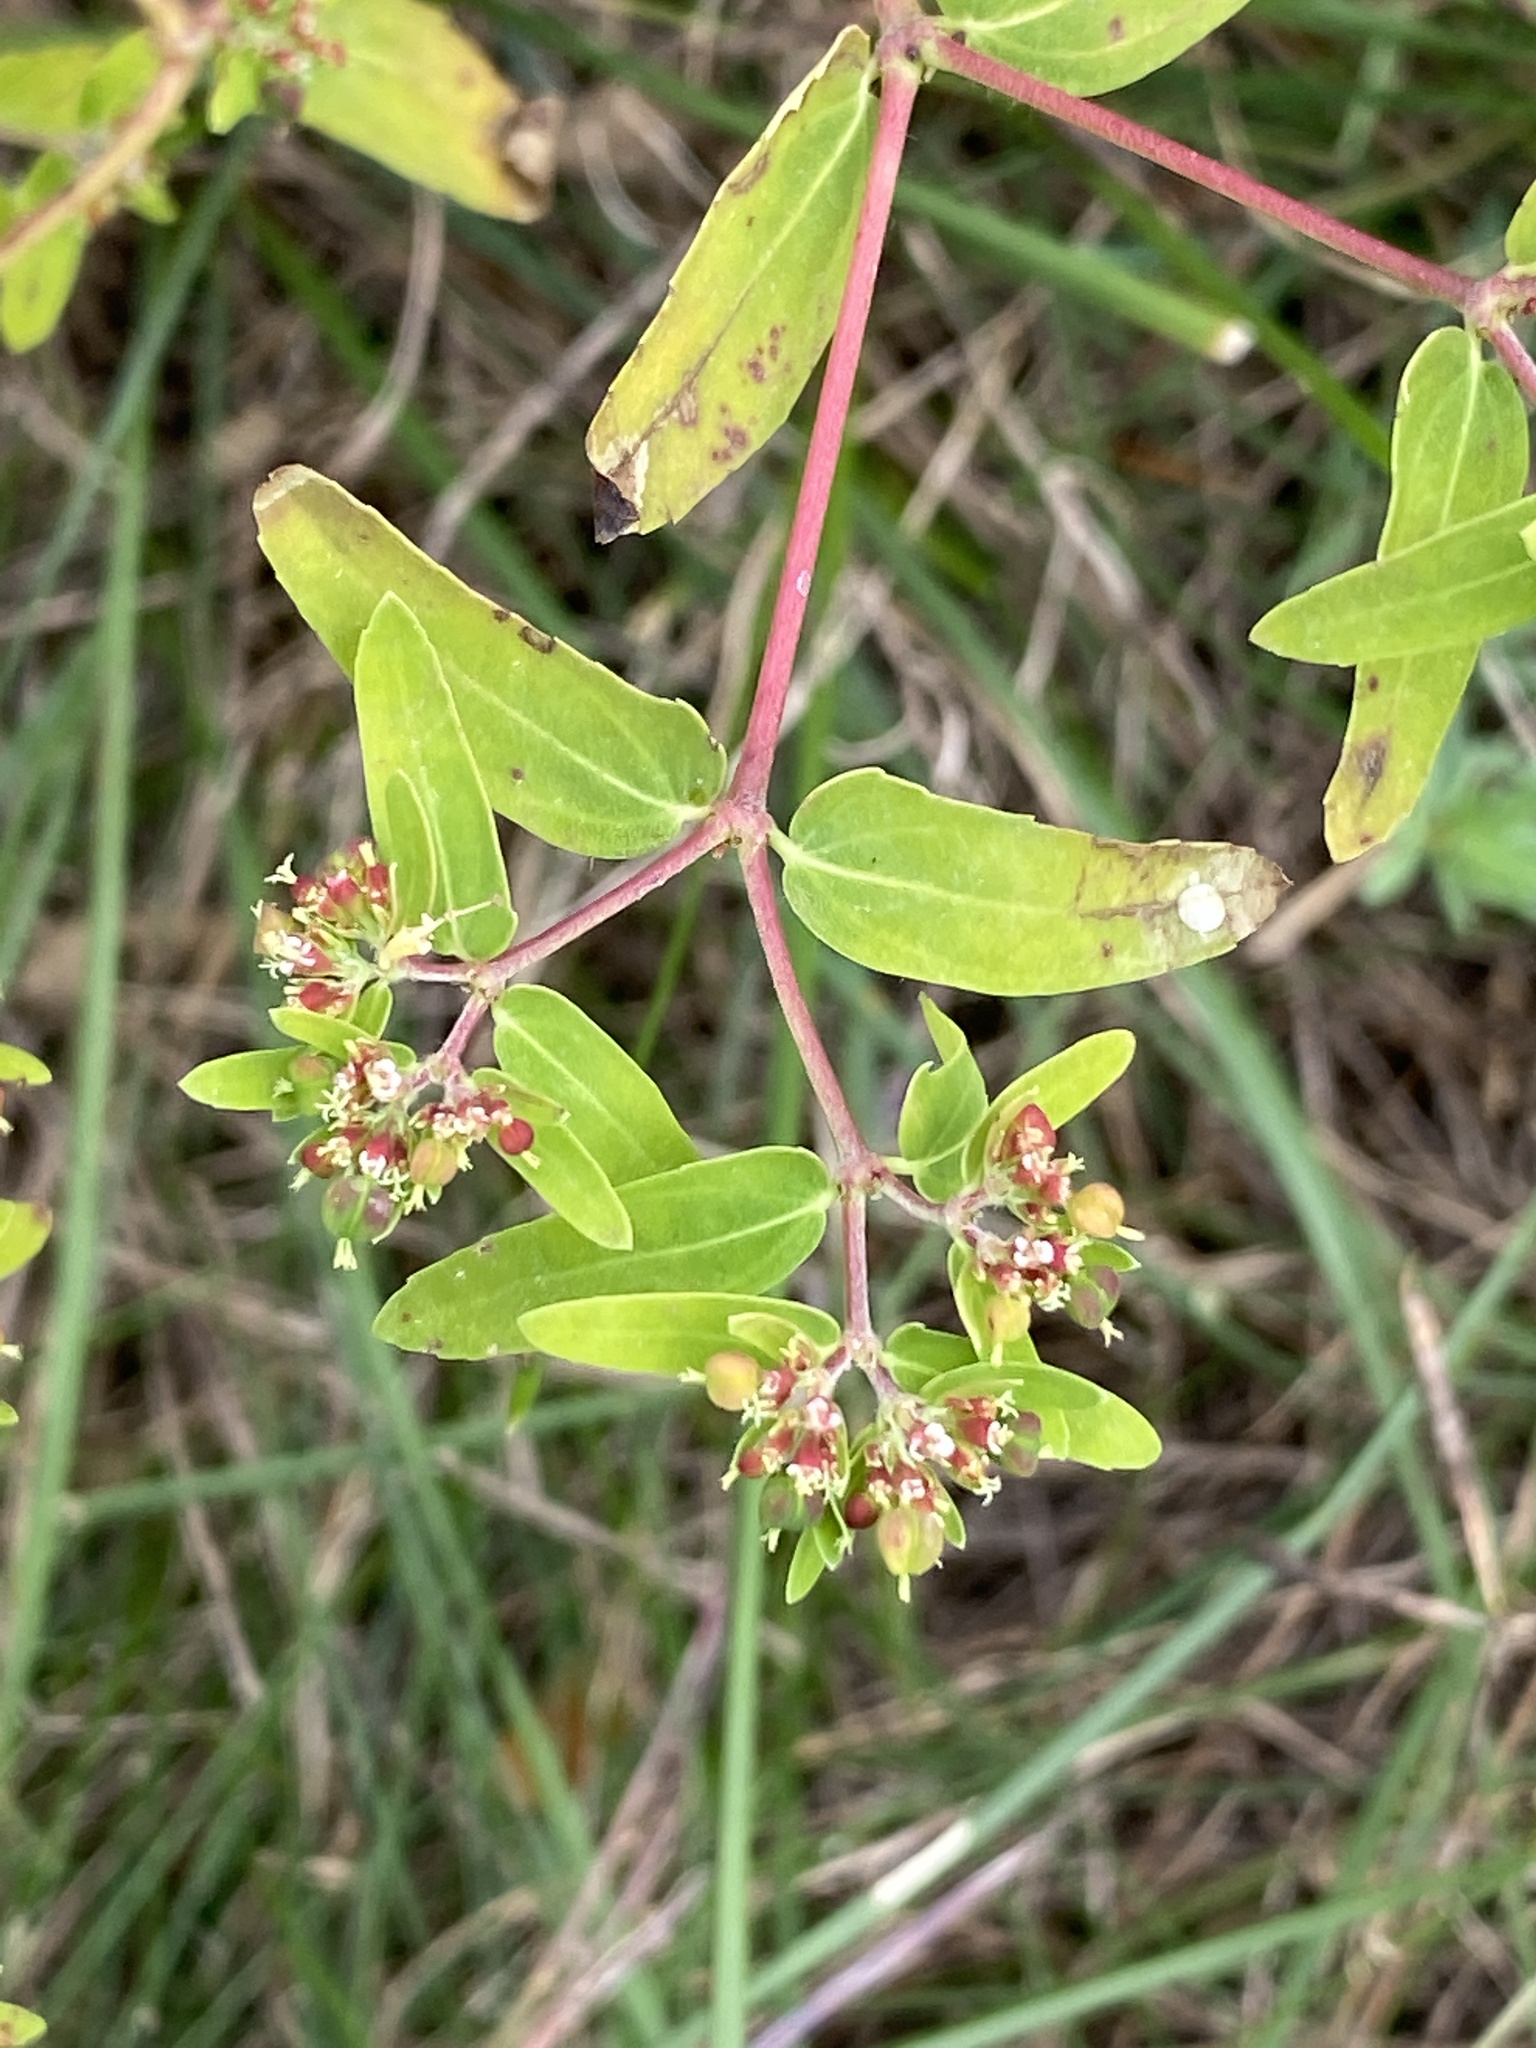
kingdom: Plantae
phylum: Tracheophyta
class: Magnoliopsida
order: Malpighiales
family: Euphorbiaceae
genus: Euphorbia
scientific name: Euphorbia nutans
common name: Eyebane
